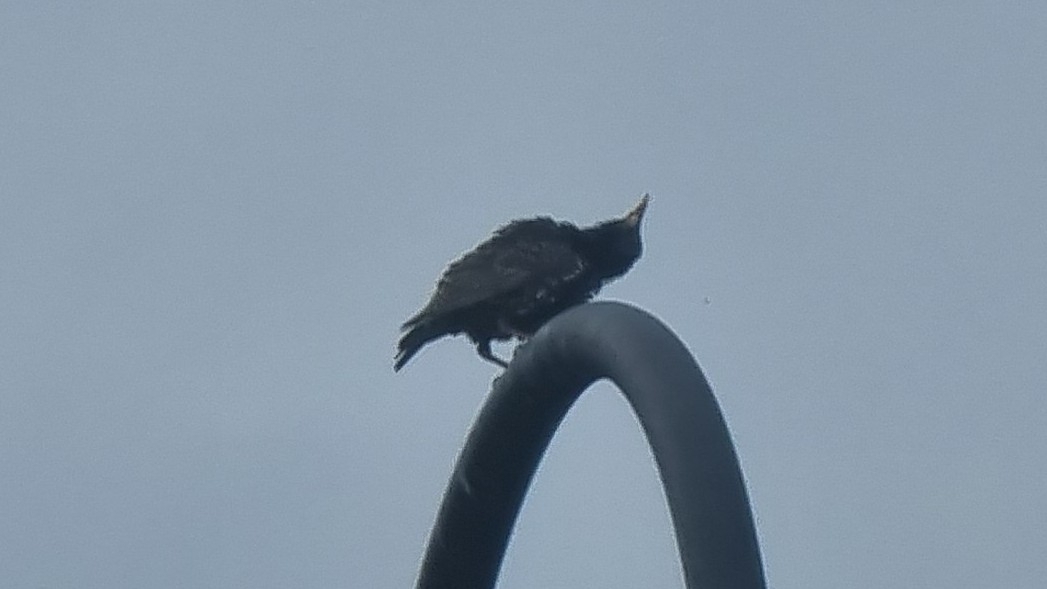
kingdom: Animalia
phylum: Chordata
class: Aves
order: Passeriformes
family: Sturnidae
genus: Sturnus
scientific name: Sturnus vulgaris
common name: Common starling
